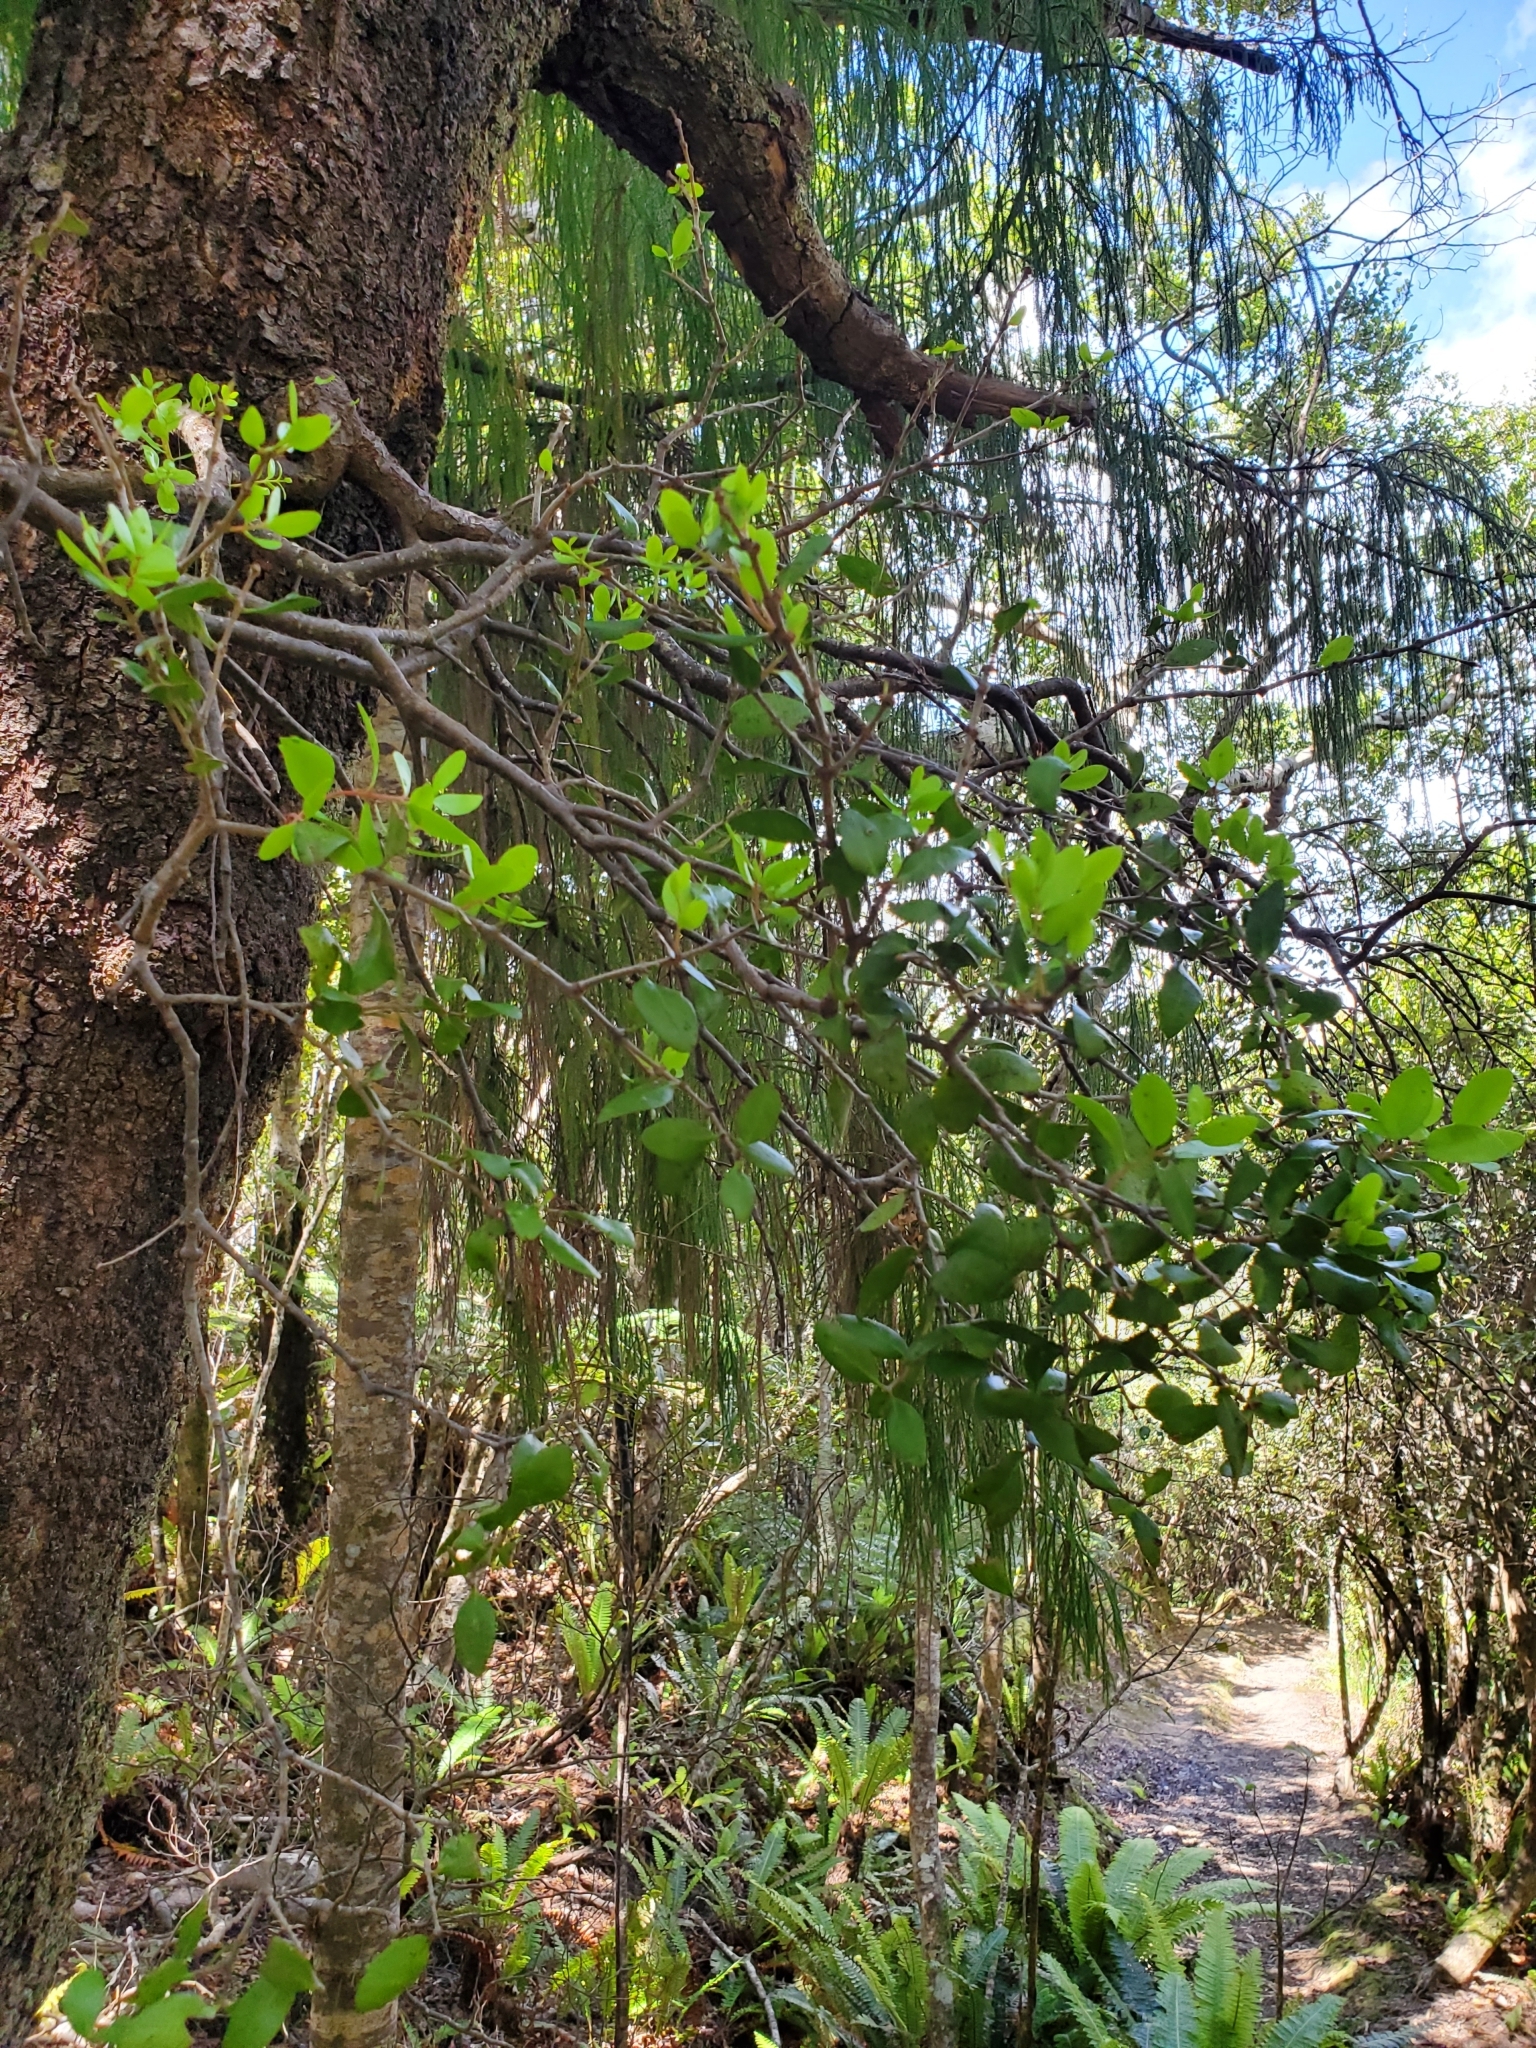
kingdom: Plantae
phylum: Tracheophyta
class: Magnoliopsida
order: Santalales
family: Loranthaceae
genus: Peraxilla
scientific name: Peraxilla tetrapetala
